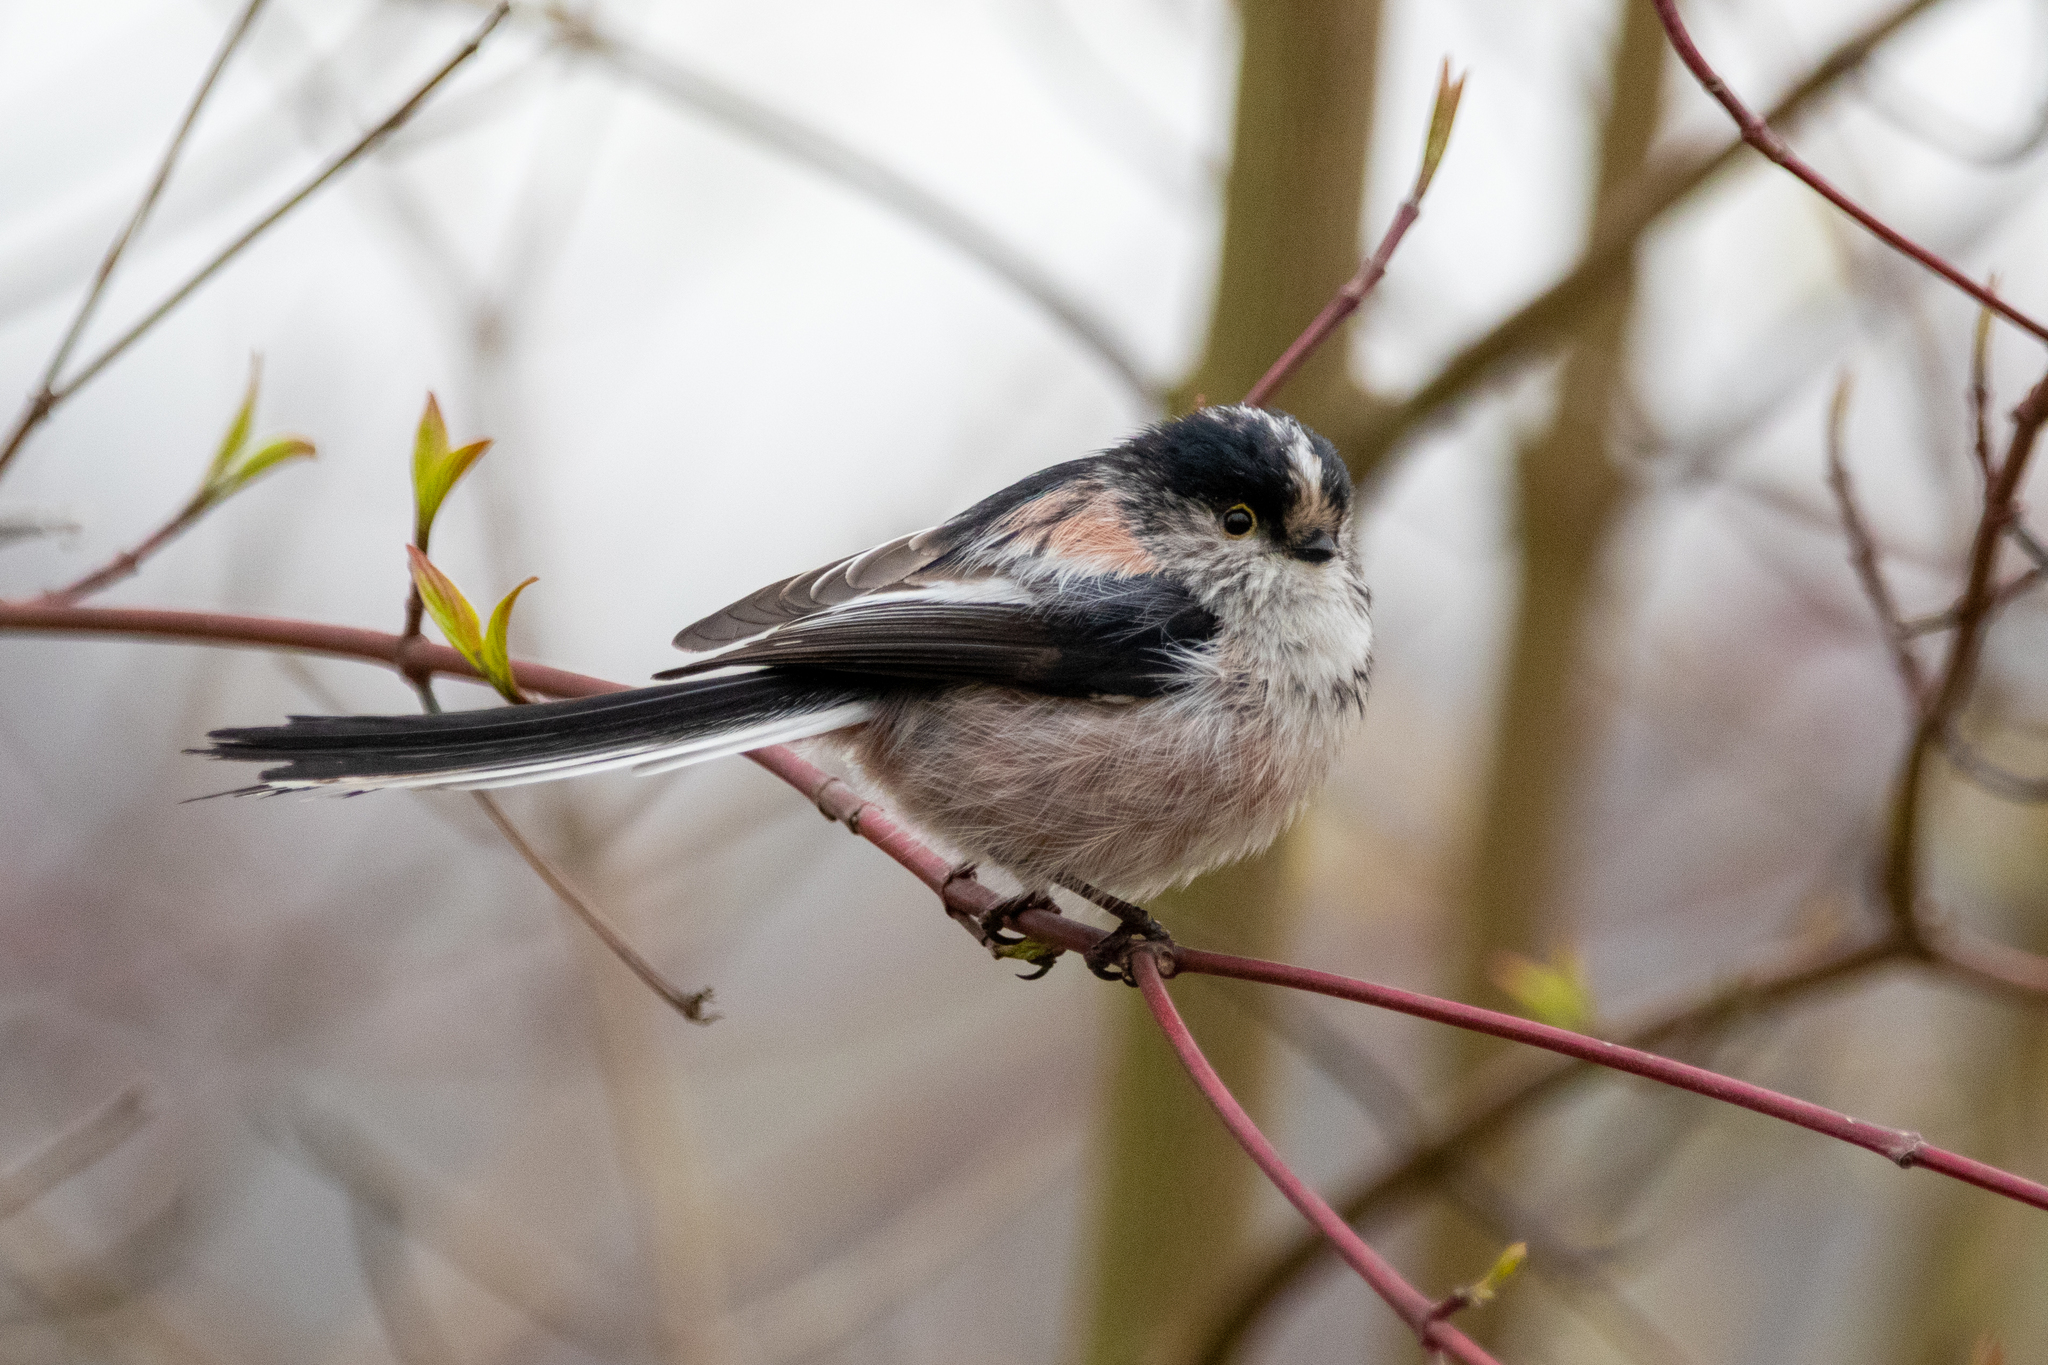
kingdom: Animalia
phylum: Chordata
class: Aves
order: Passeriformes
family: Aegithalidae
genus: Aegithalos
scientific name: Aegithalos caudatus
